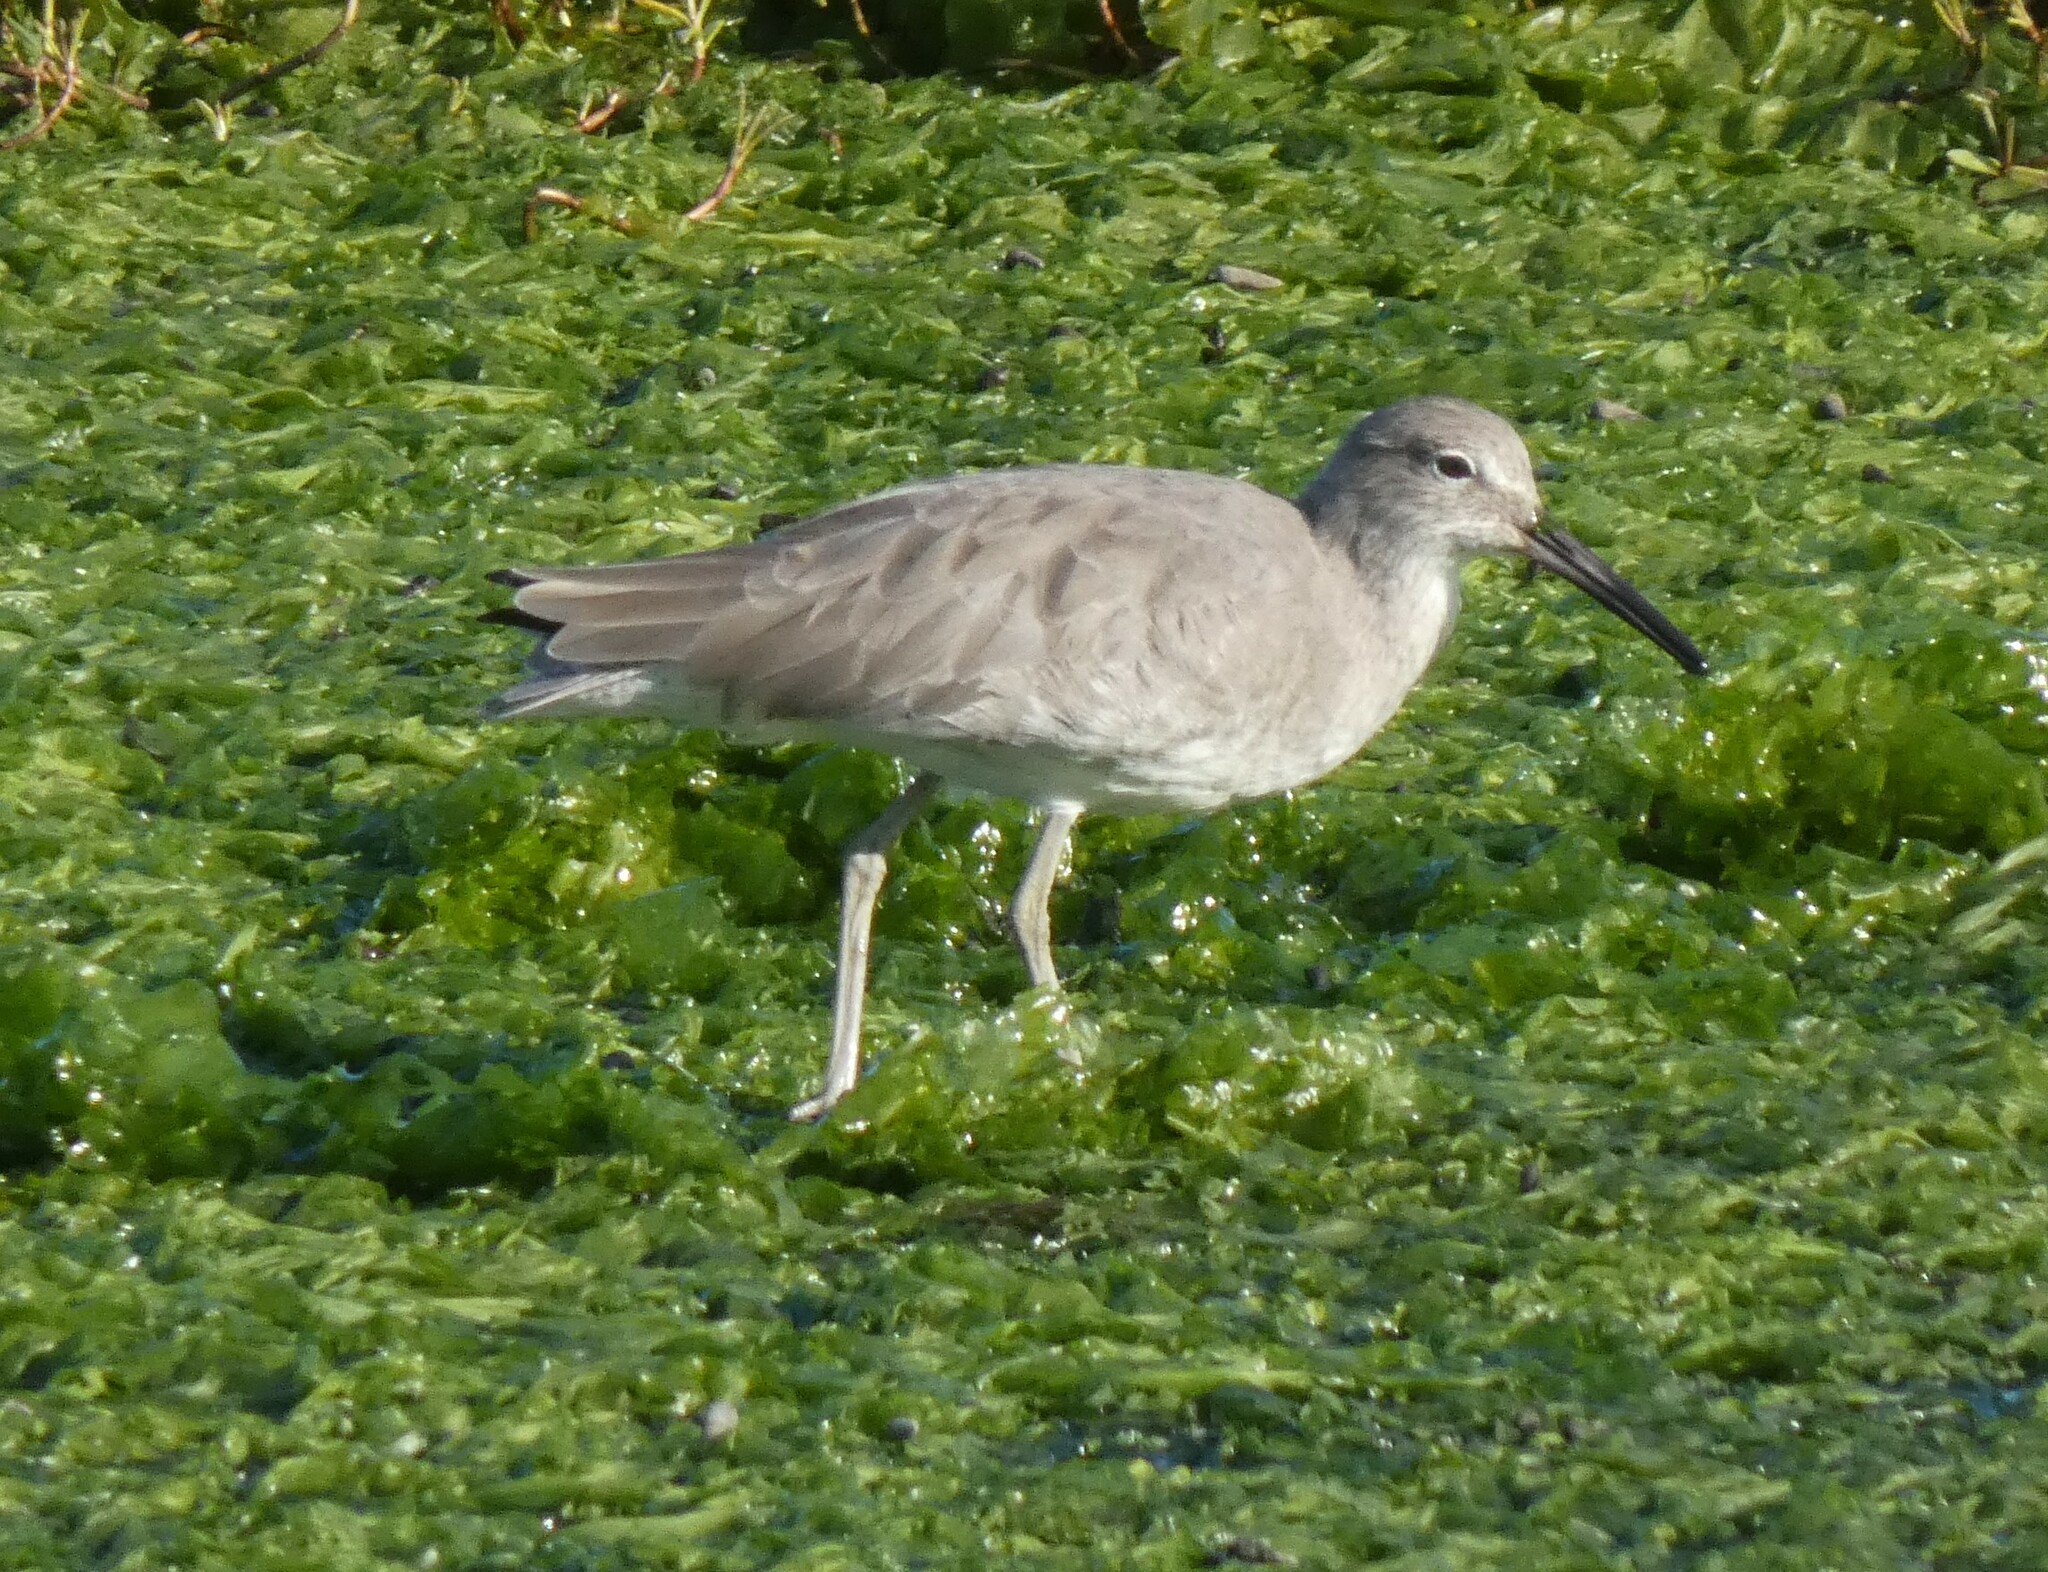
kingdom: Animalia
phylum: Chordata
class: Aves
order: Charadriiformes
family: Scolopacidae
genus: Tringa
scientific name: Tringa semipalmata
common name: Willet
